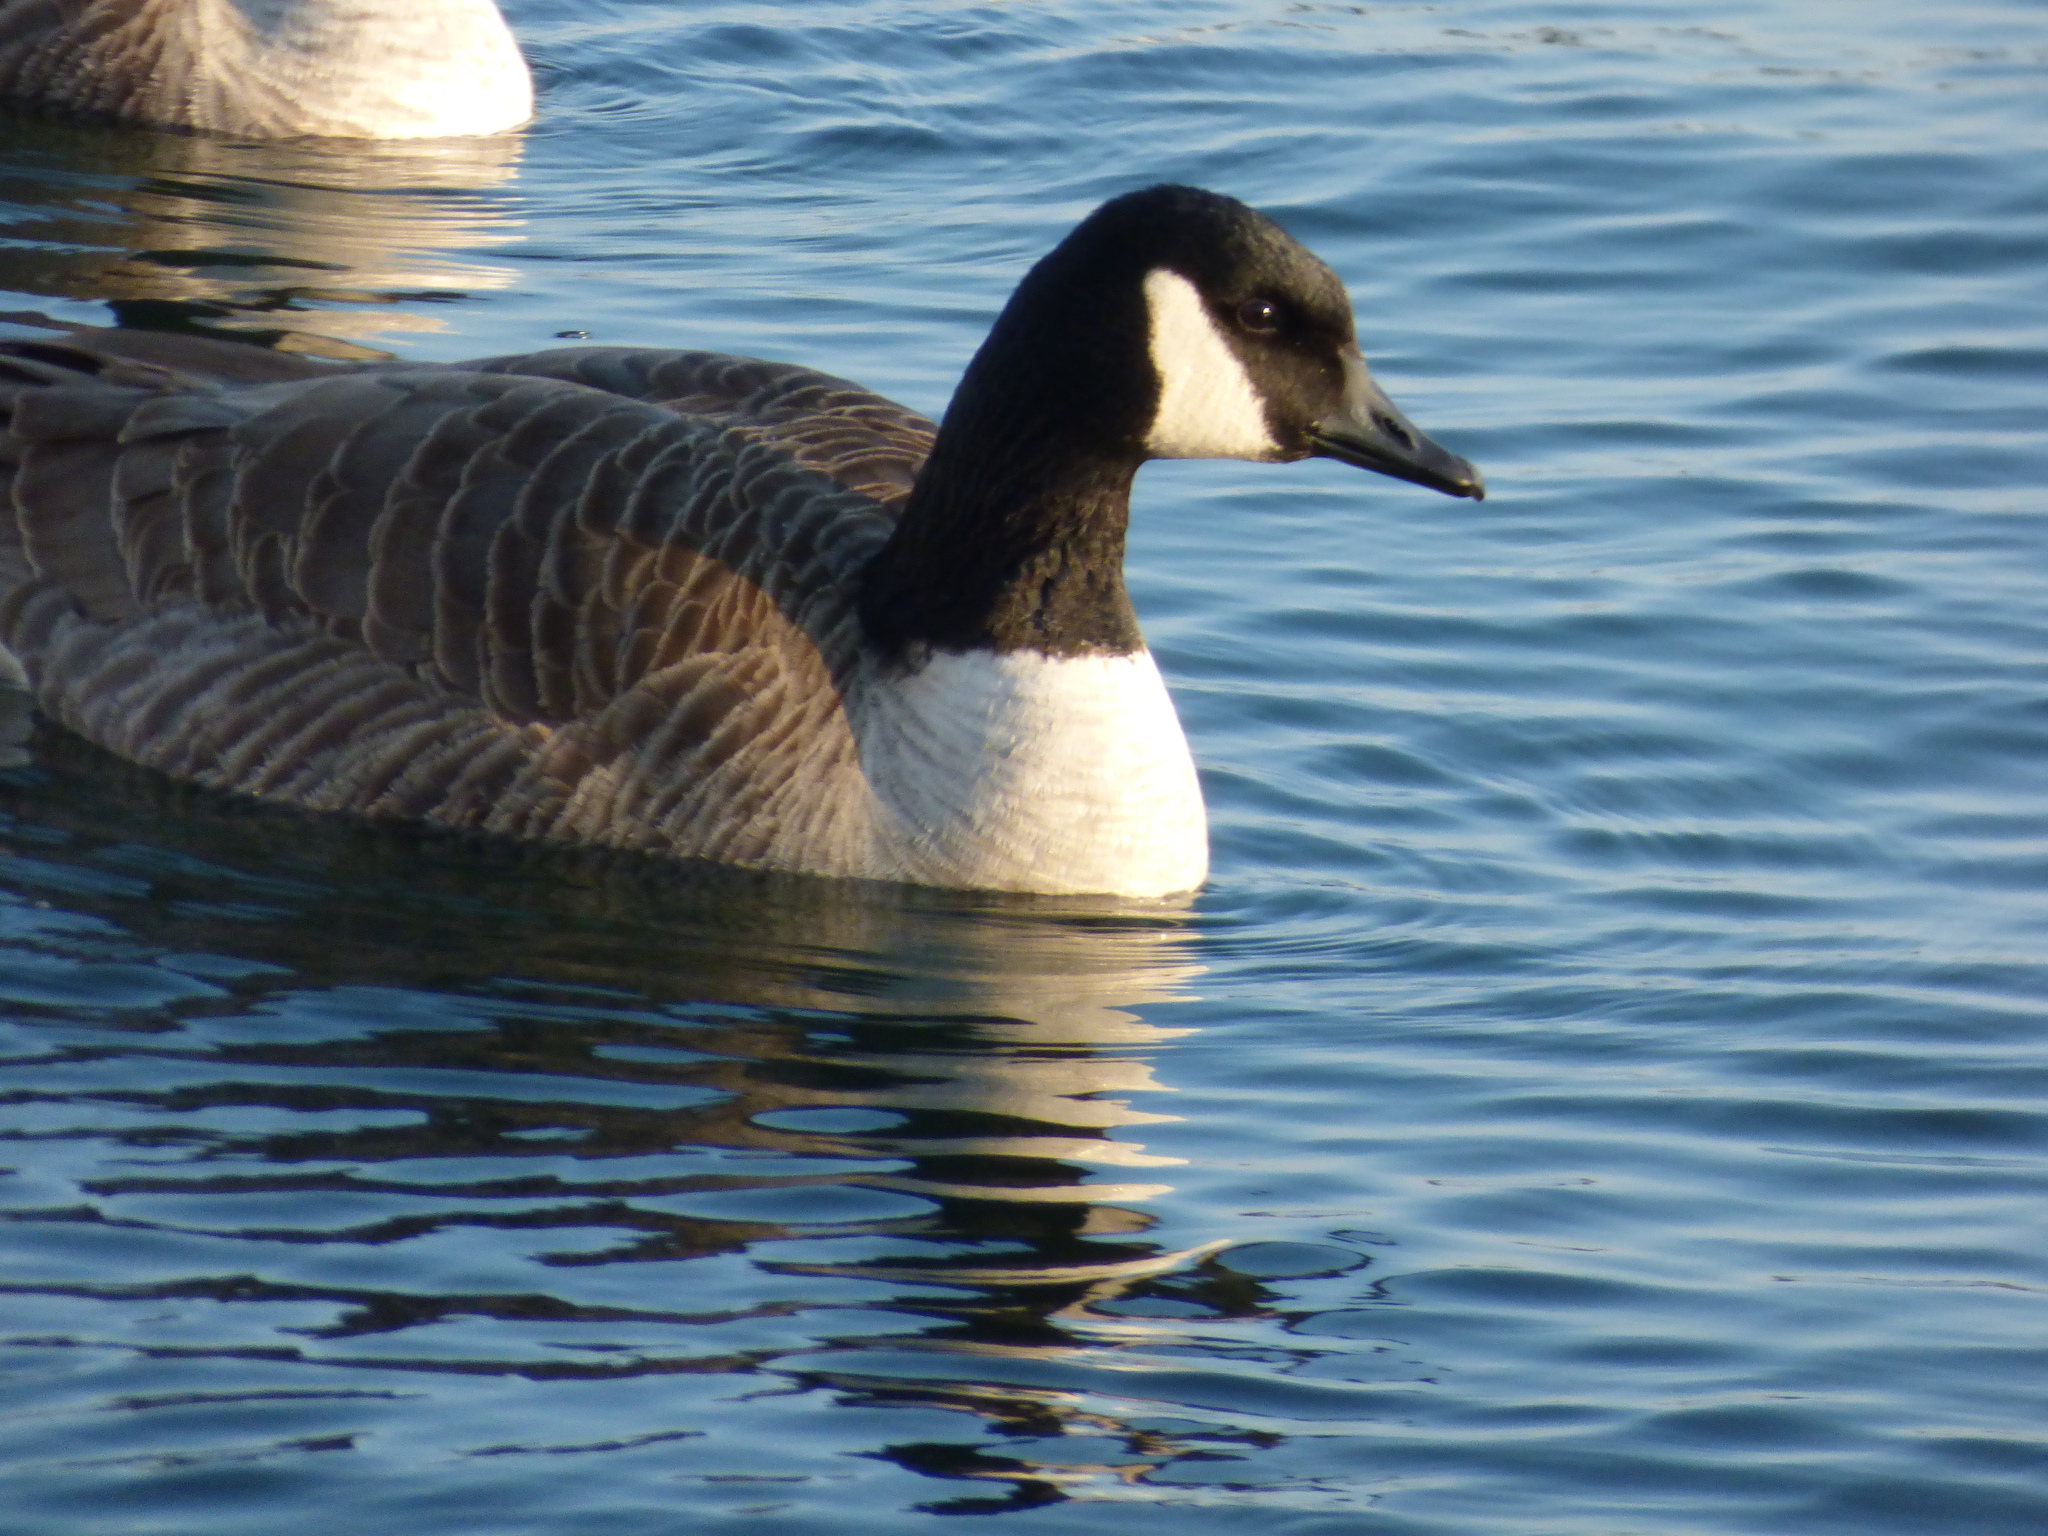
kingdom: Animalia
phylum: Chordata
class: Aves
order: Anseriformes
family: Anatidae
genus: Branta
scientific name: Branta canadensis
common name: Canada goose
